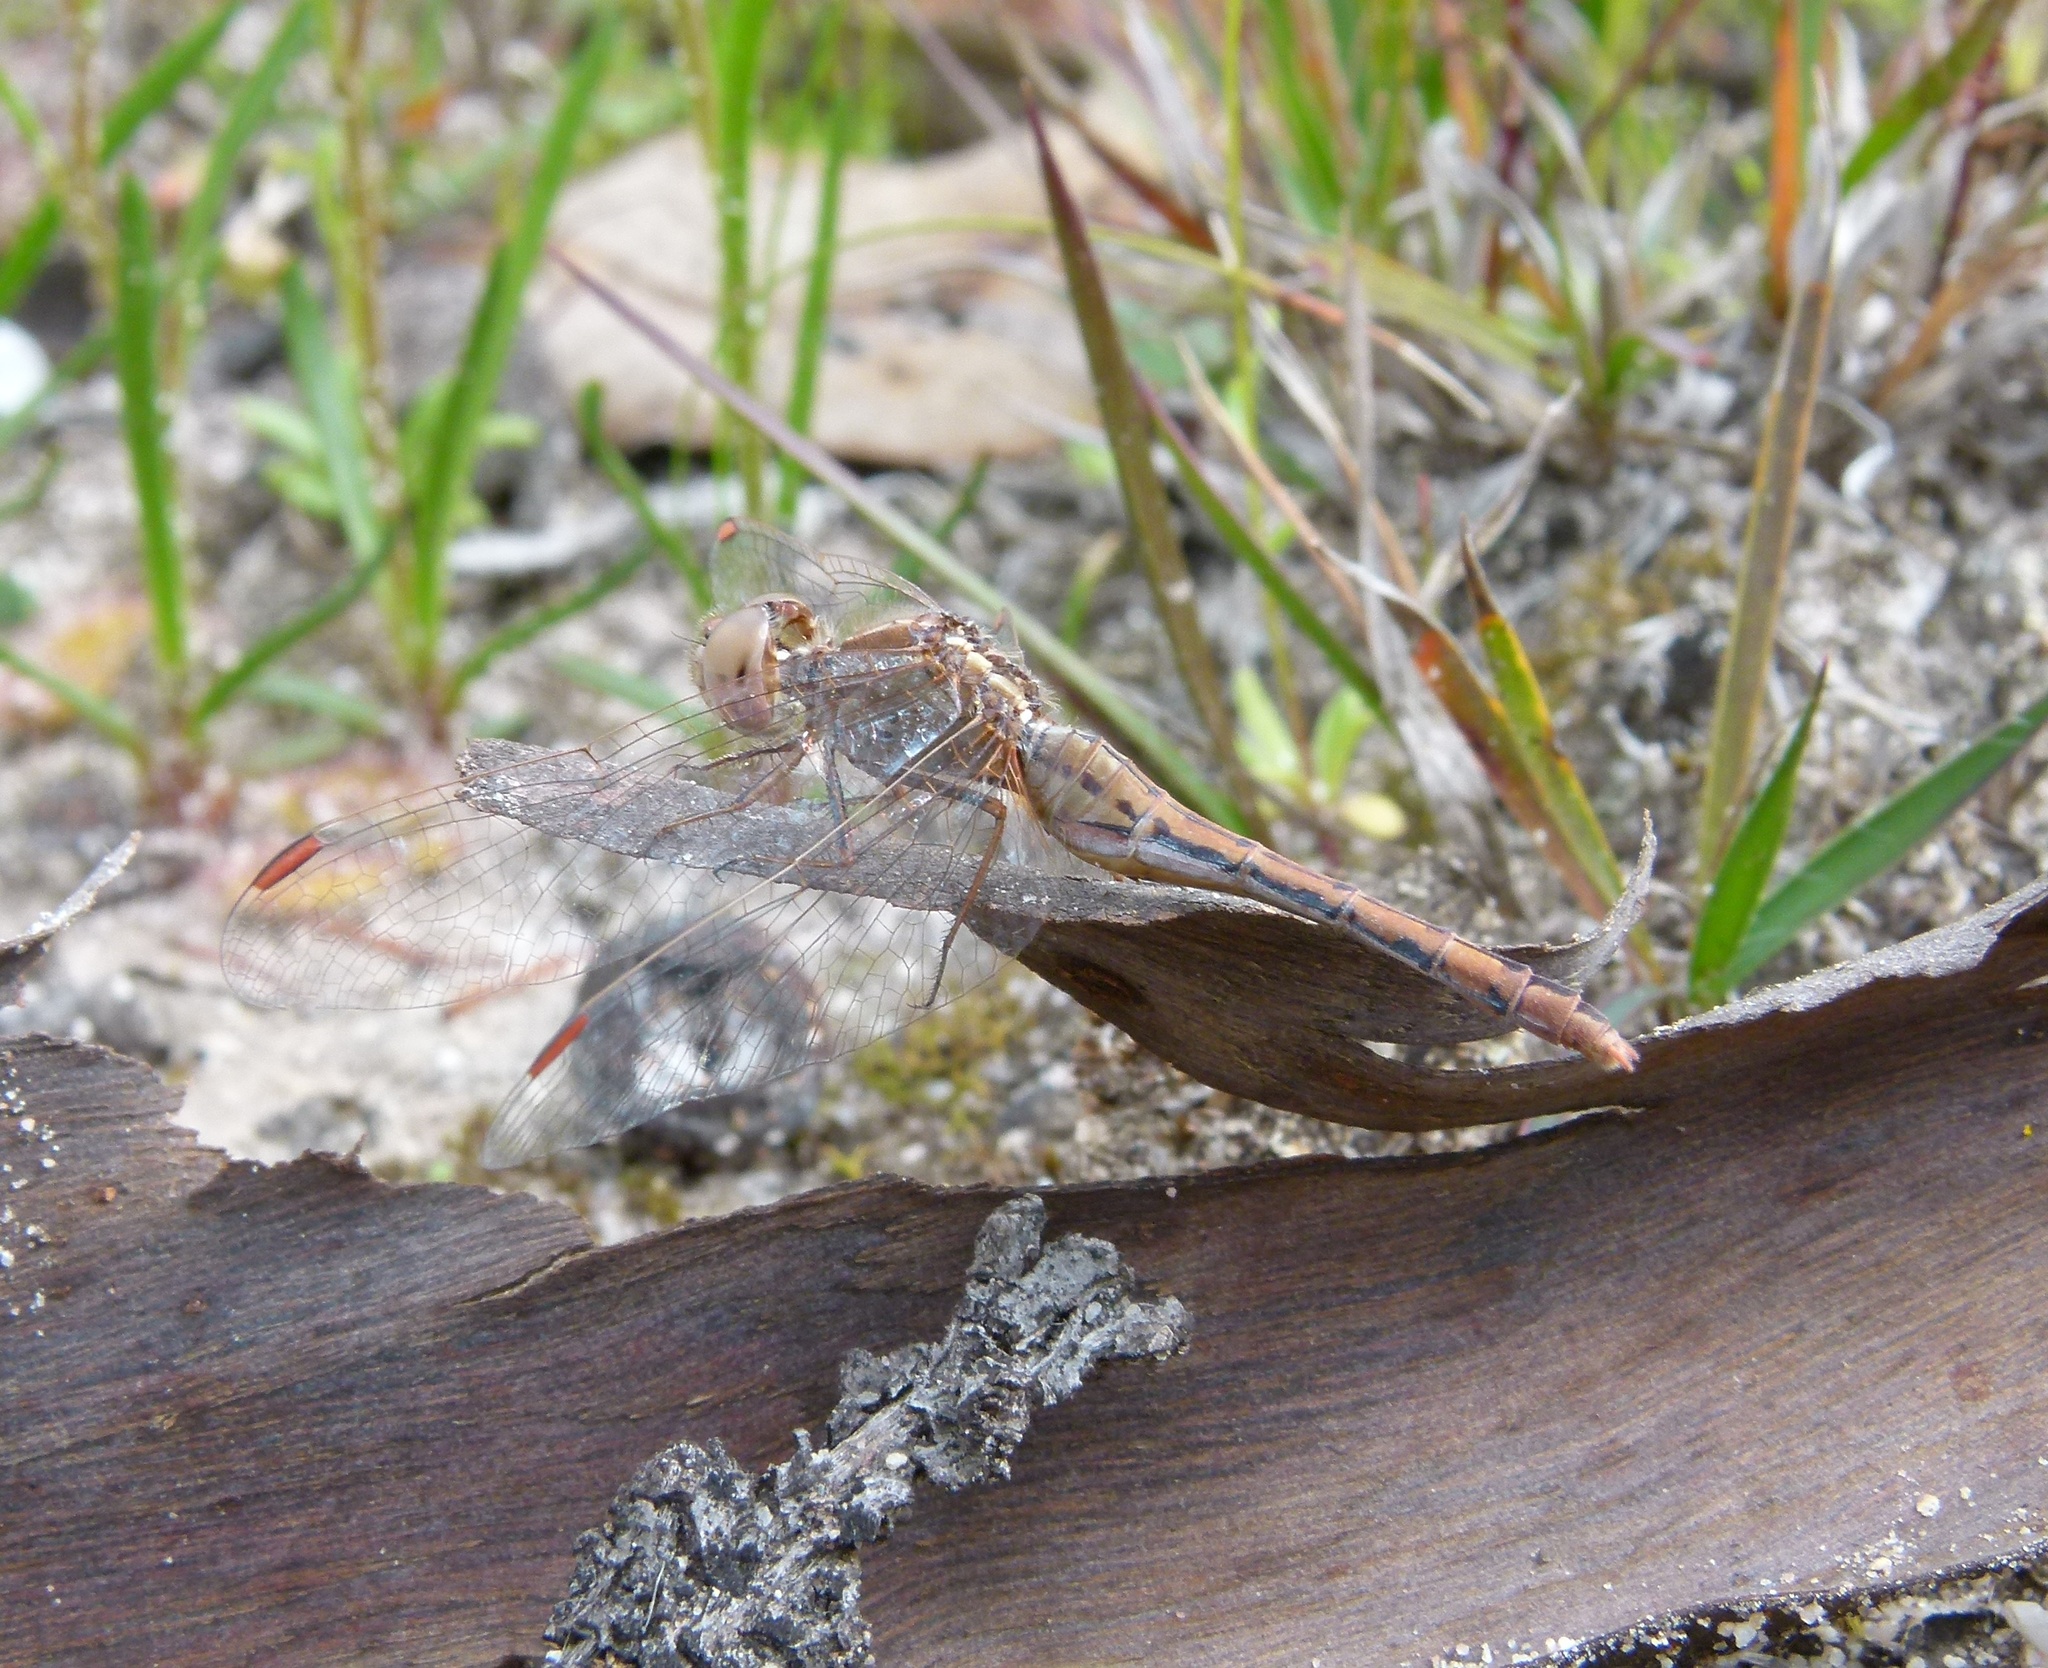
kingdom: Animalia
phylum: Arthropoda
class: Insecta
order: Odonata
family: Libellulidae
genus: Diplacodes
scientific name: Diplacodes bipunctata
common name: Red percher dragonfly
